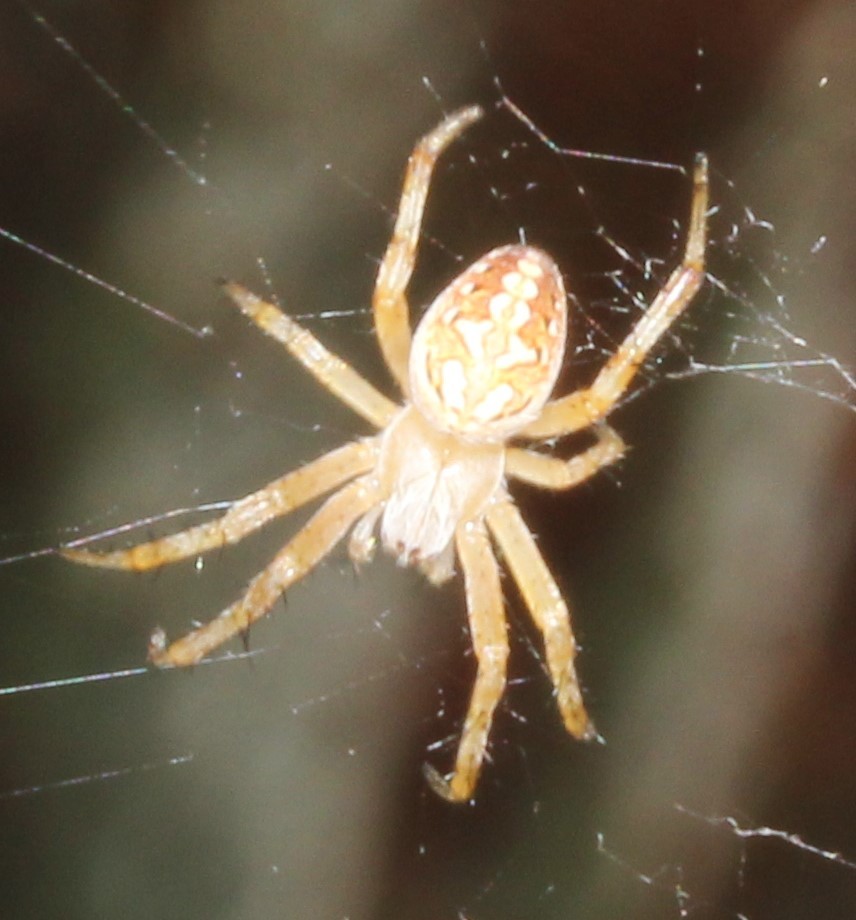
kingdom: Animalia
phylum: Arthropoda
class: Arachnida
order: Araneae
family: Araneidae
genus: Neoscona
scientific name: Neoscona oaxacensis
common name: Orb weavers
